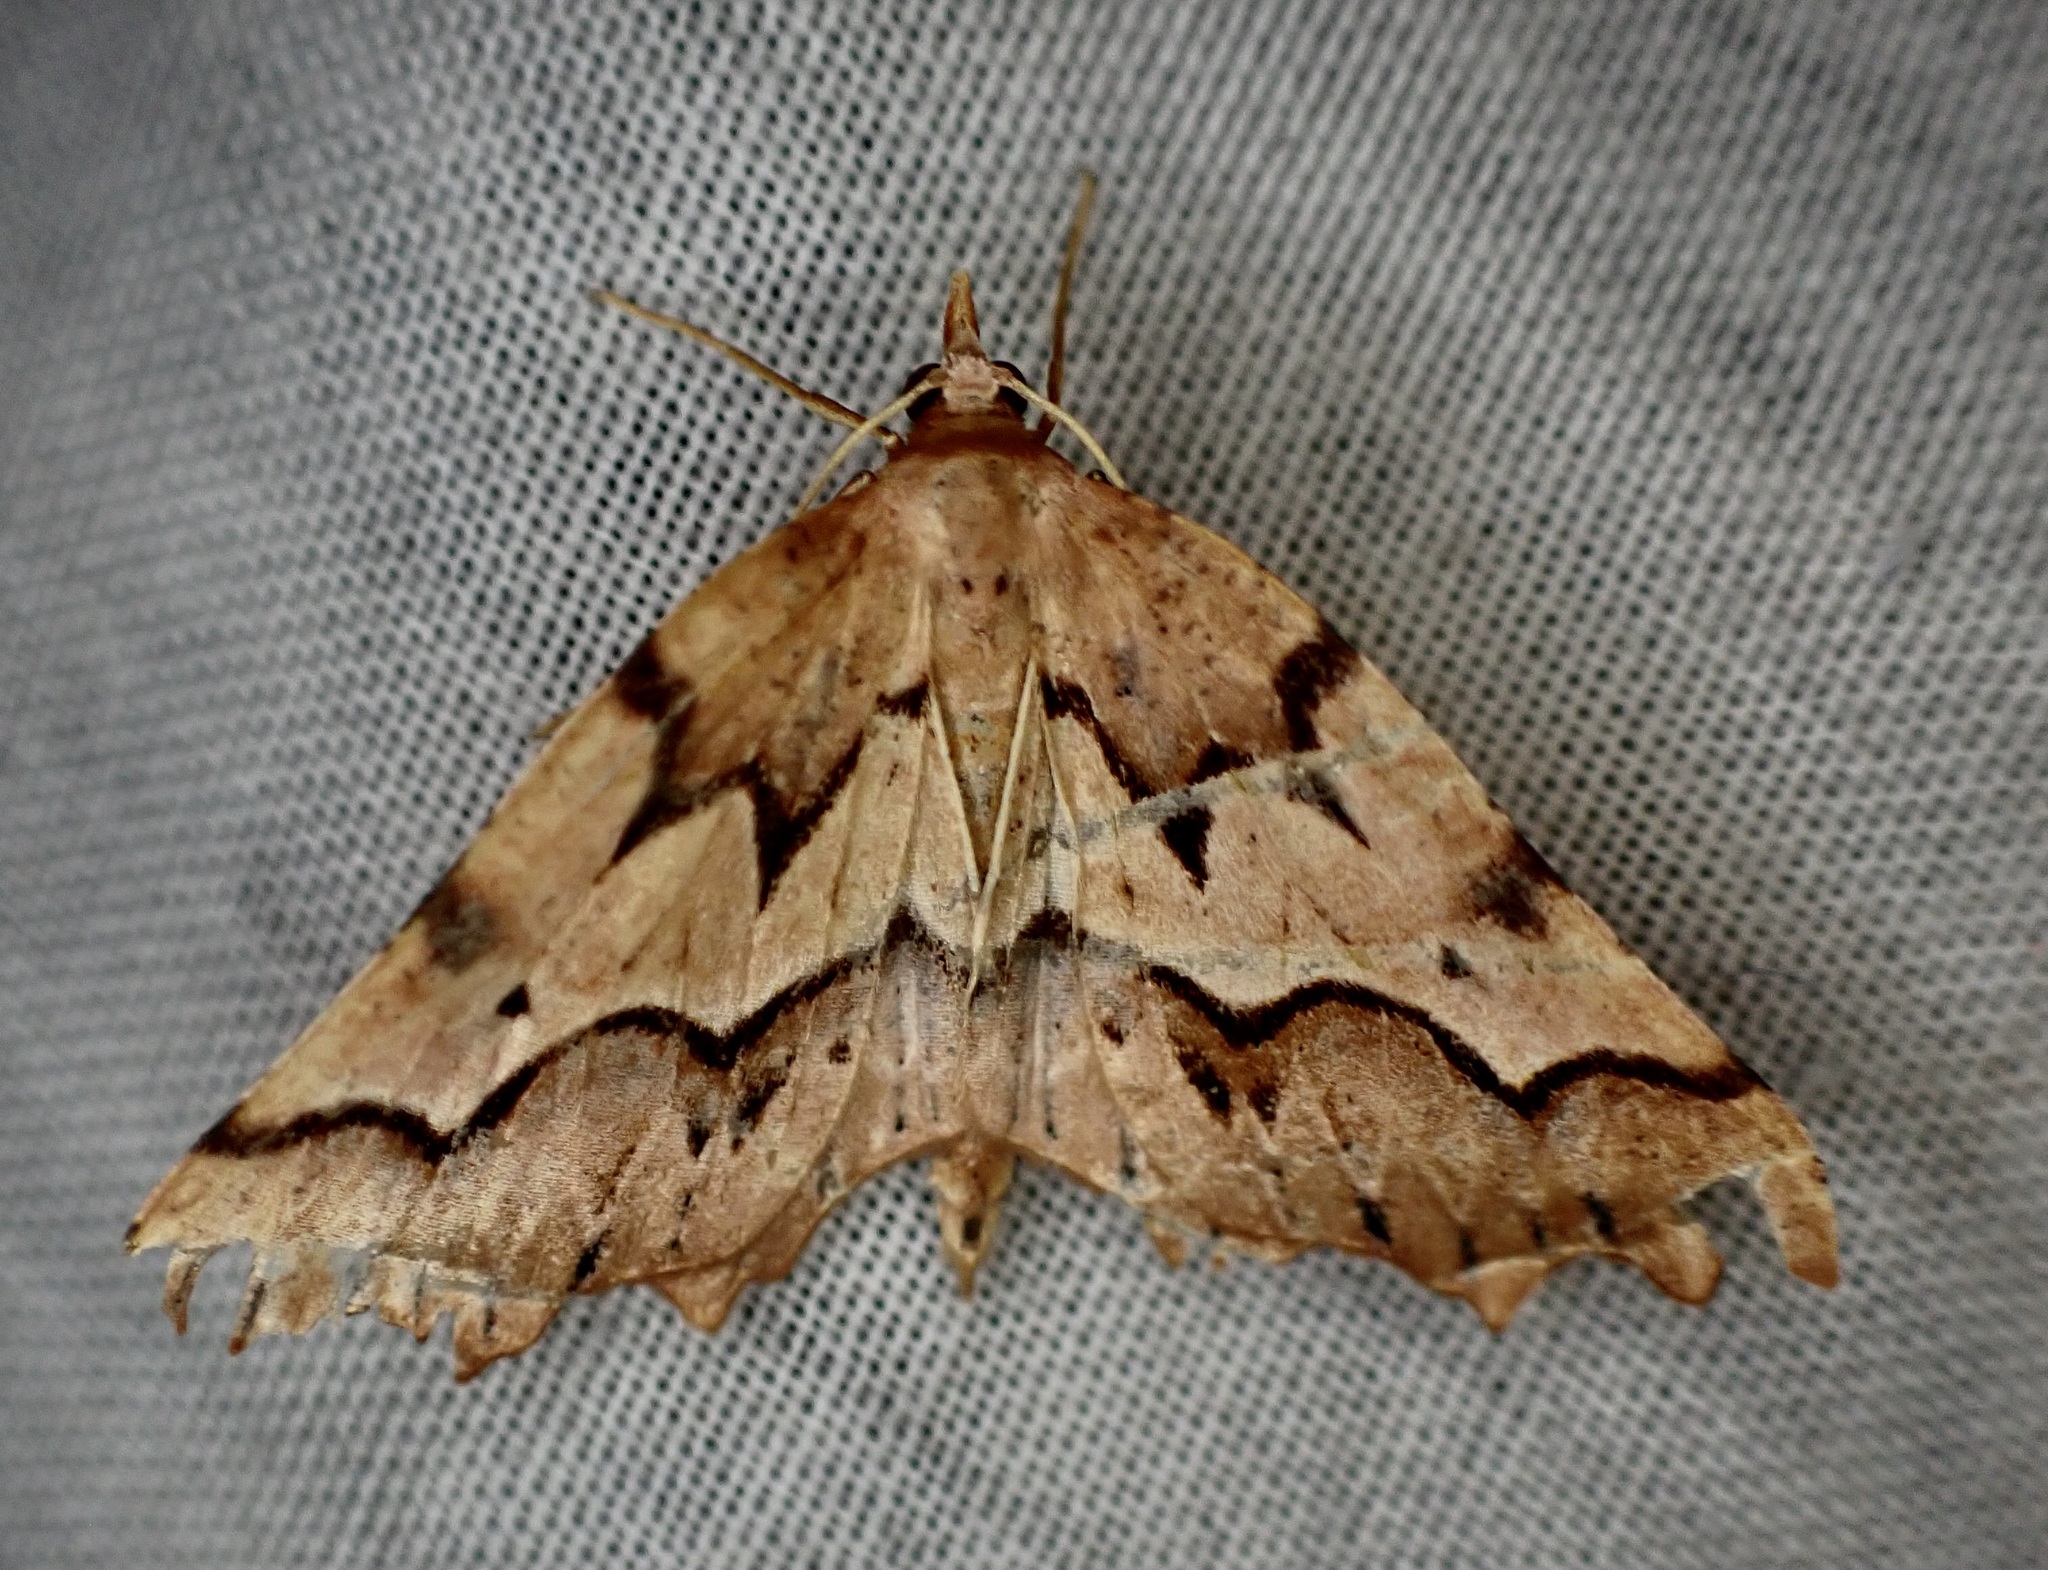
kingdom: Animalia
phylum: Arthropoda
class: Insecta
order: Lepidoptera
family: Geometridae
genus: Ischalis
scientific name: Ischalis fortinata
